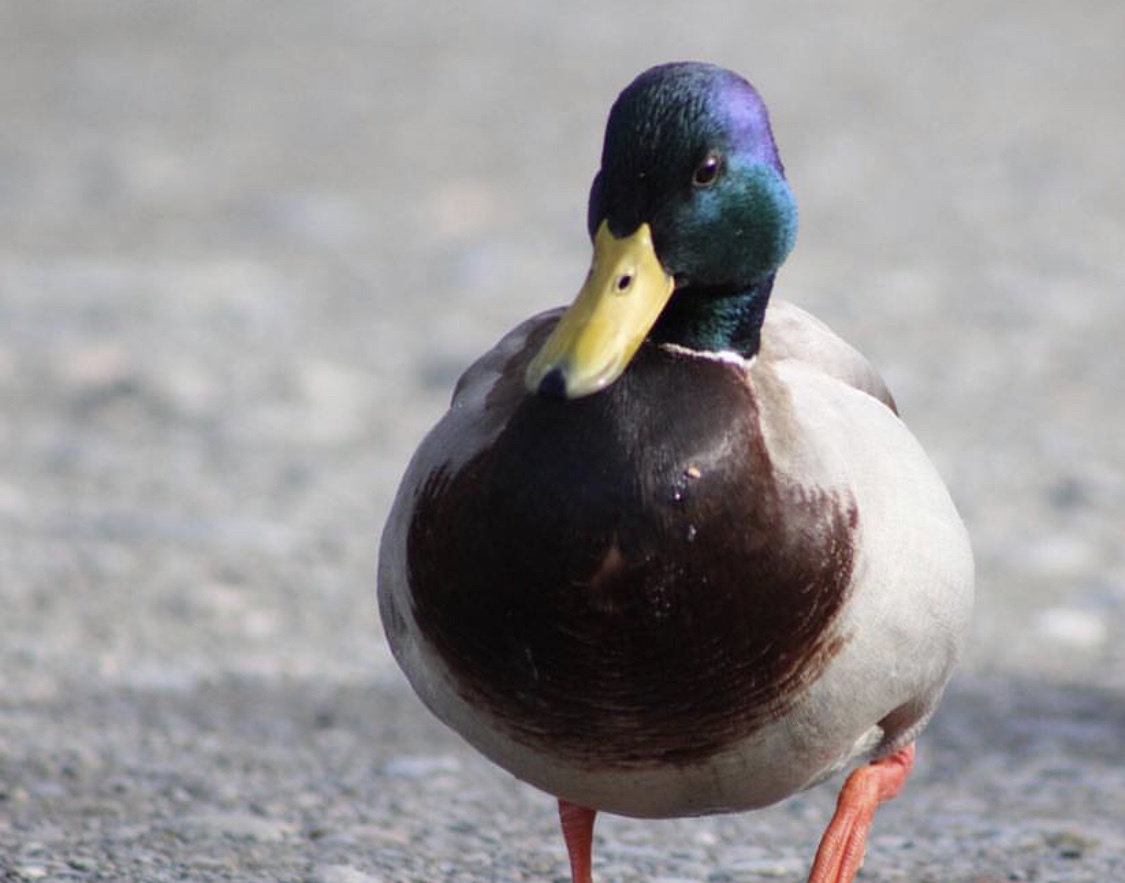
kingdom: Animalia
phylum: Chordata
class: Aves
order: Anseriformes
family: Anatidae
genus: Anas
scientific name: Anas platyrhynchos
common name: Mallard
